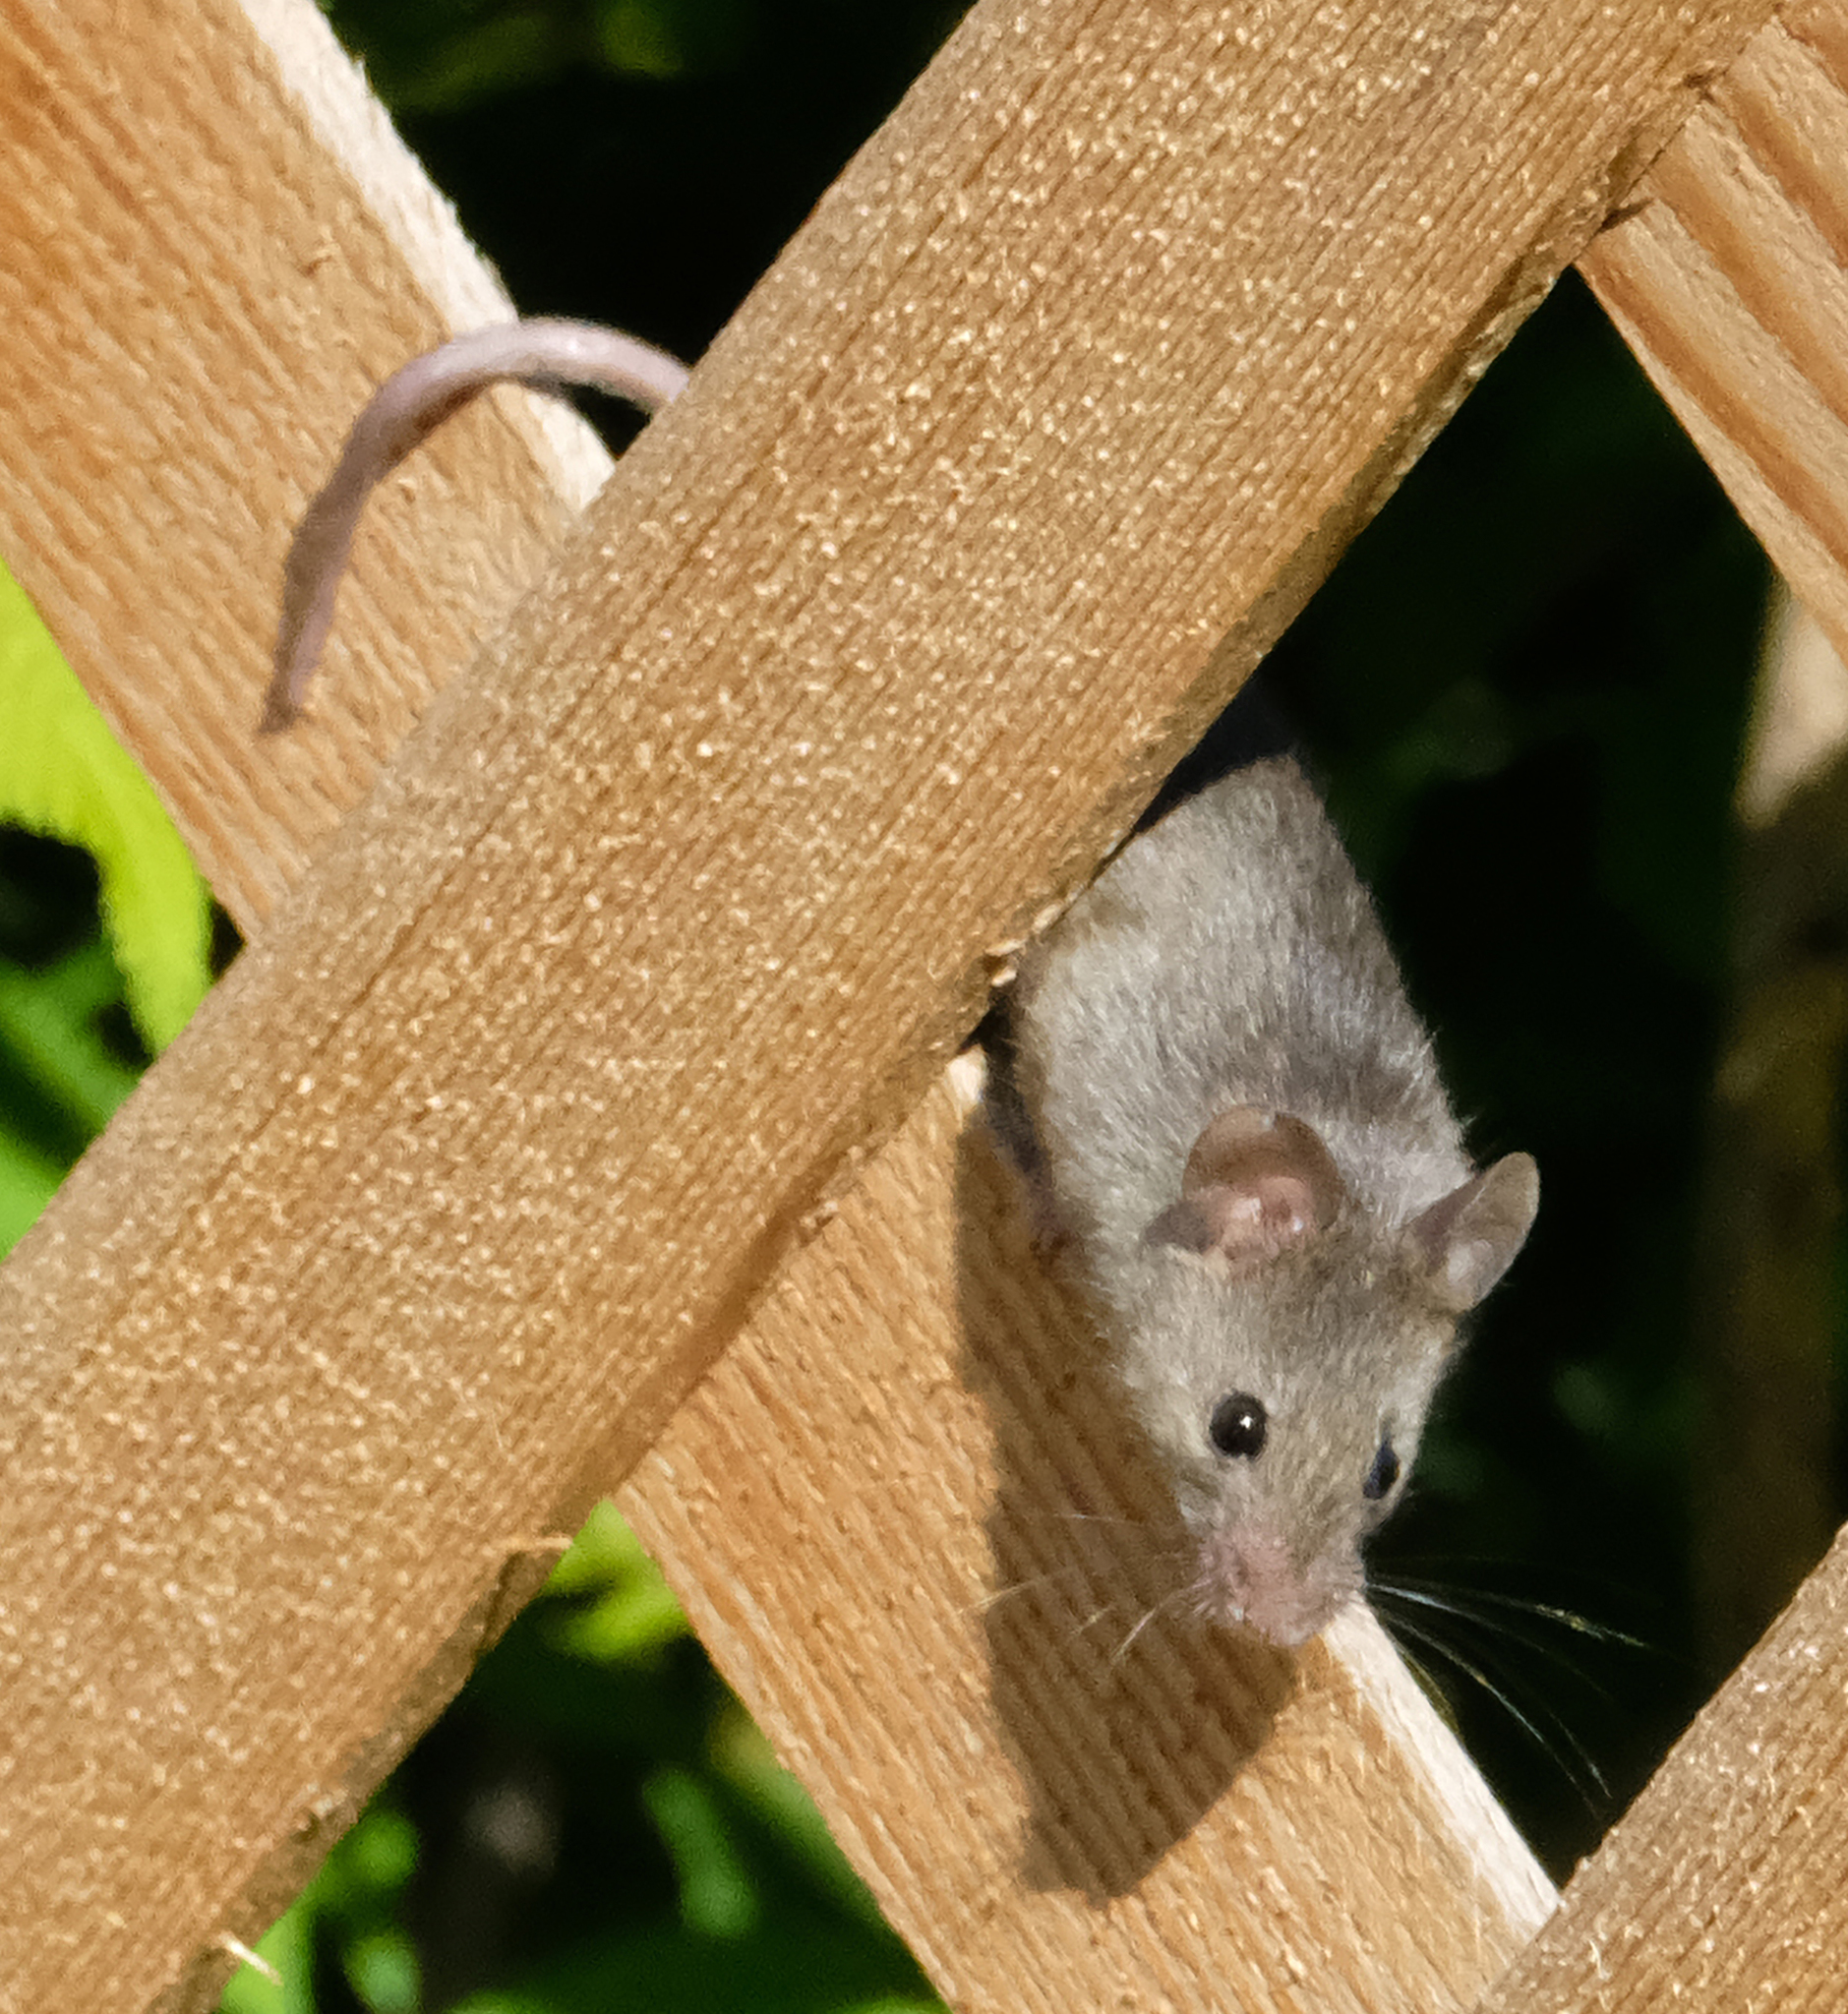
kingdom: Animalia
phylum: Chordata
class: Mammalia
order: Rodentia
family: Muridae
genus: Mus
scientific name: Mus musculus
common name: House mouse
